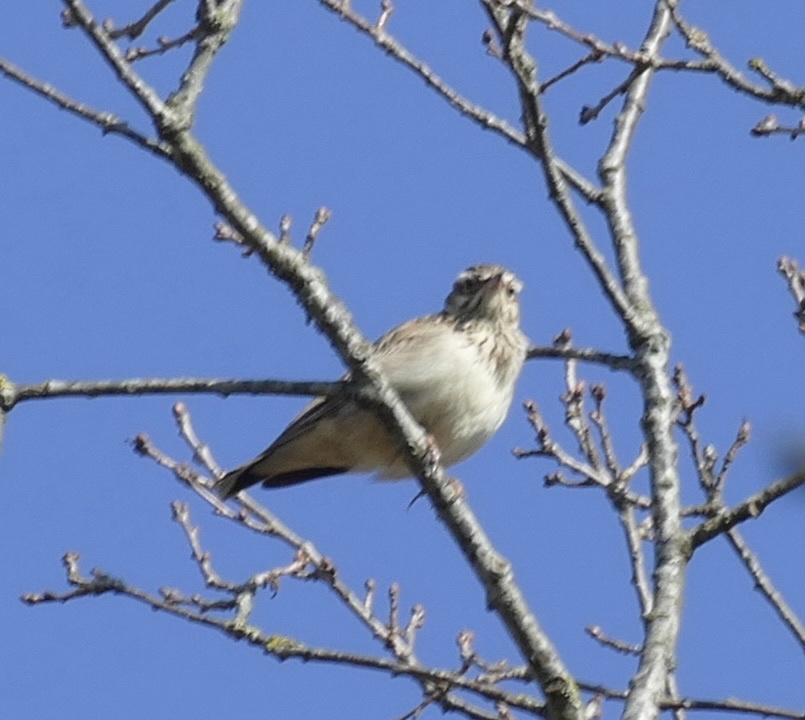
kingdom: Animalia
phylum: Chordata
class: Aves
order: Passeriformes
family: Alaudidae
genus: Lullula
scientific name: Lullula arborea
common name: Woodlark
